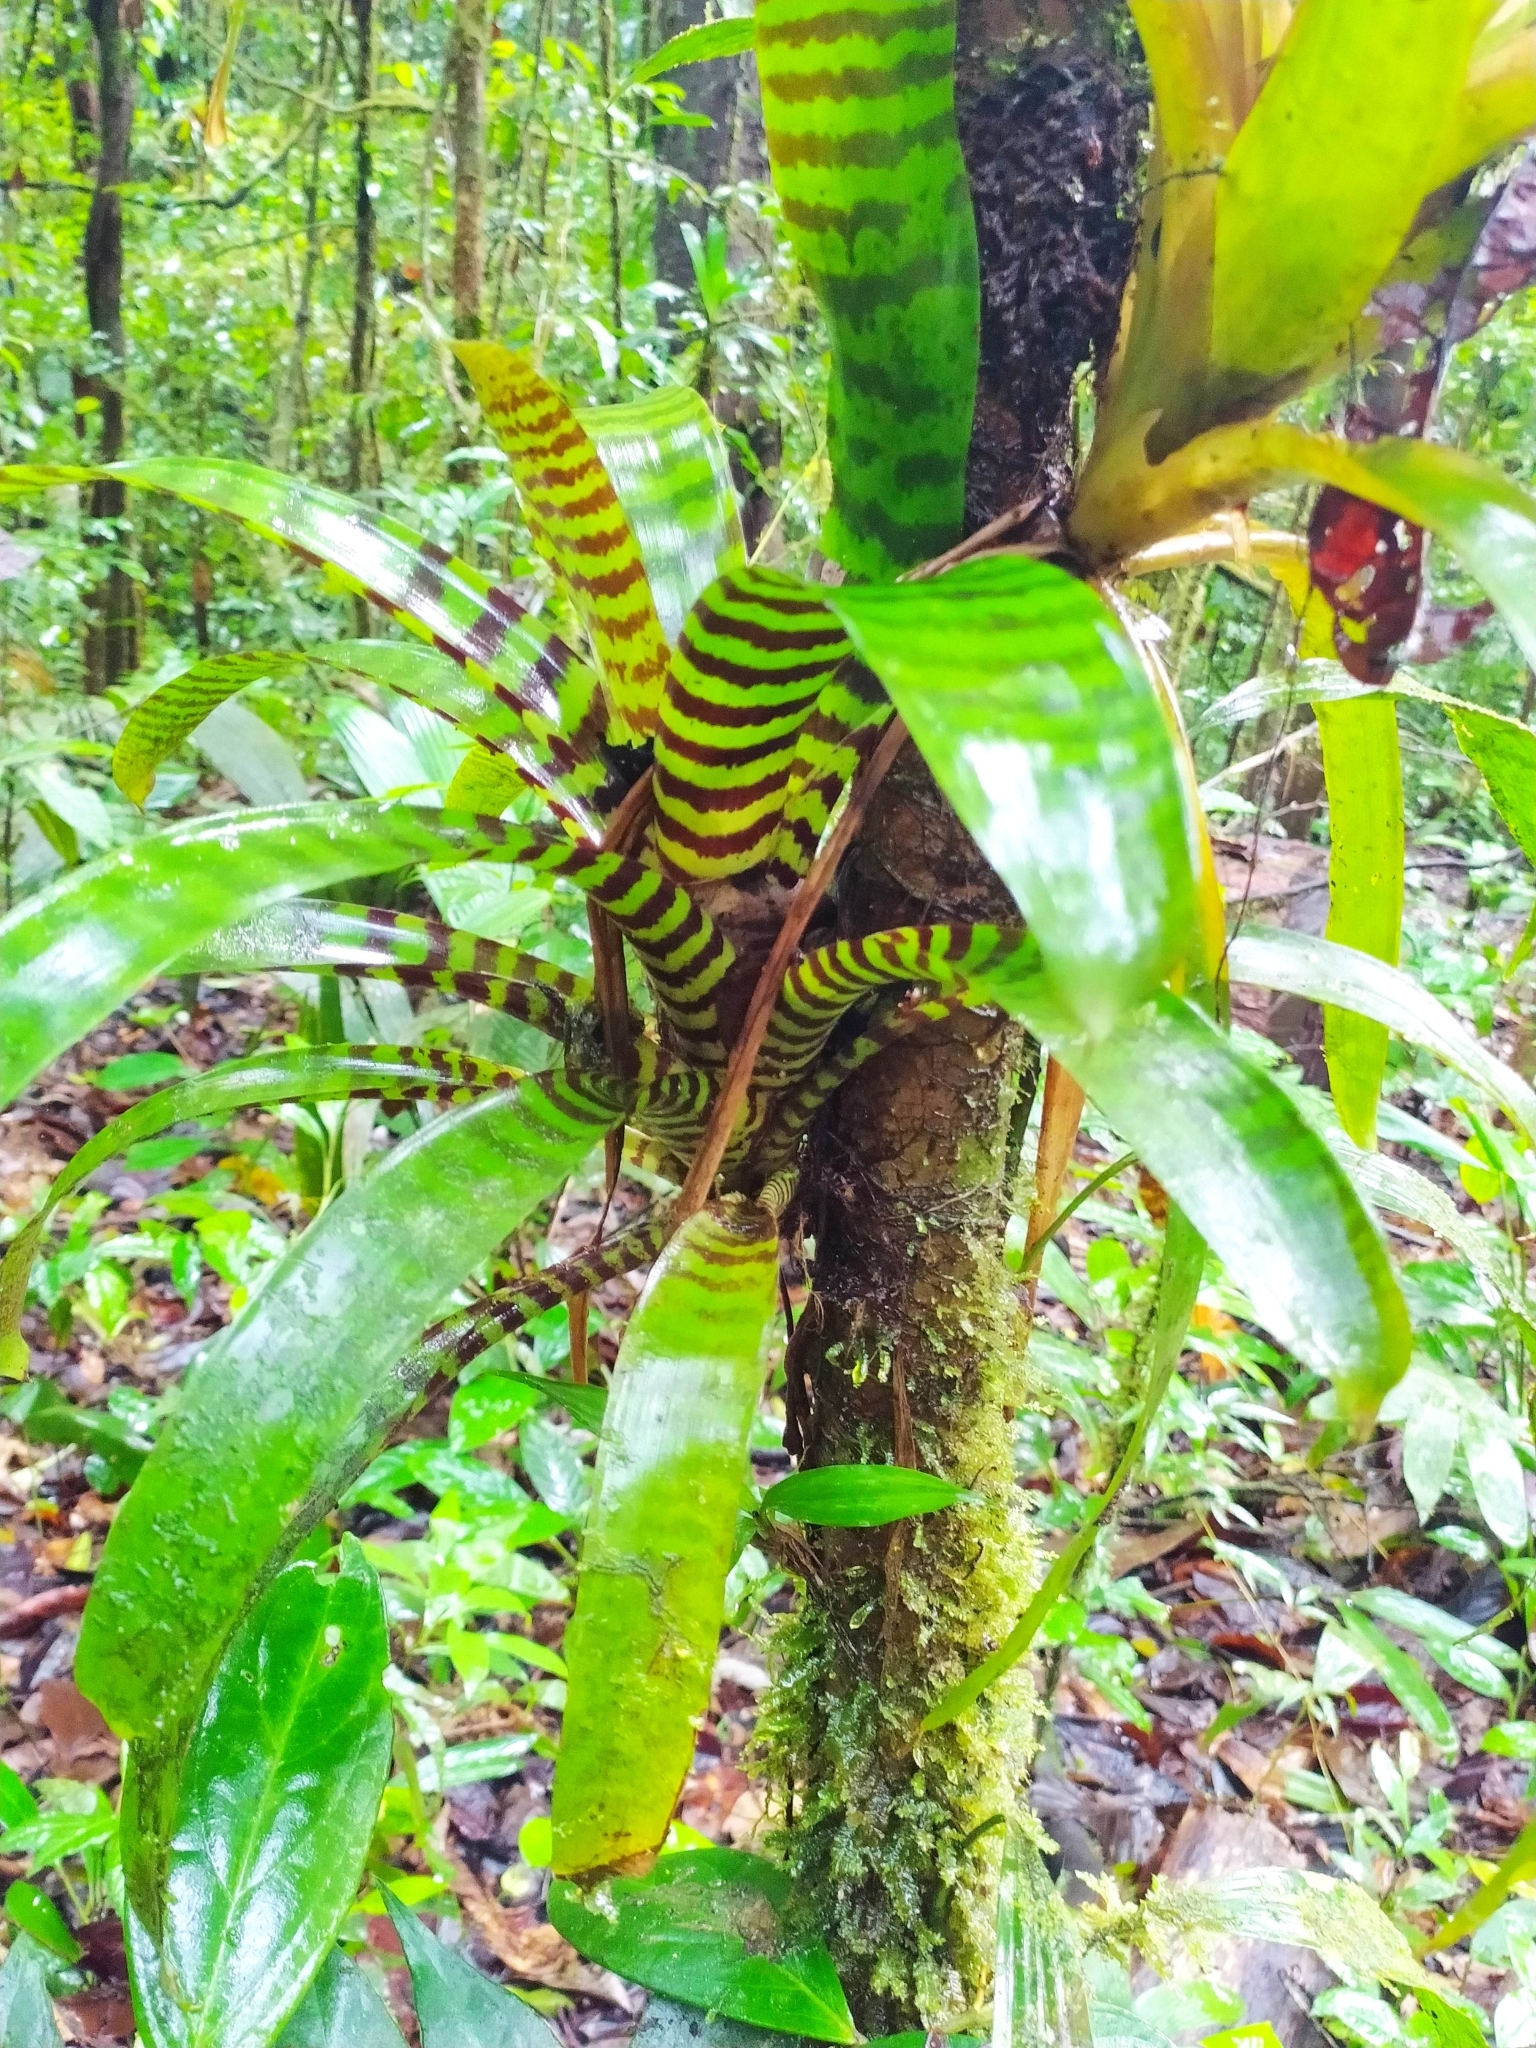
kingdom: Plantae
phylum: Tracheophyta
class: Liliopsida
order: Poales
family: Bromeliaceae
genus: Lutheria
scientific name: Lutheria splendens
